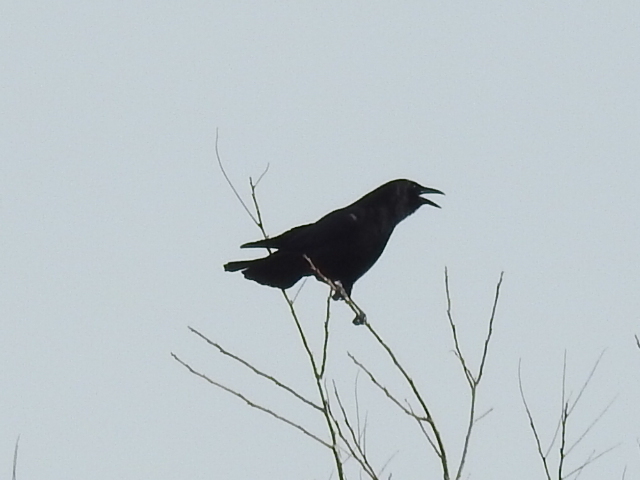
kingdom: Animalia
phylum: Chordata
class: Aves
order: Passeriformes
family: Corvidae
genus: Corvus
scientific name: Corvus brachyrhynchos
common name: American crow
